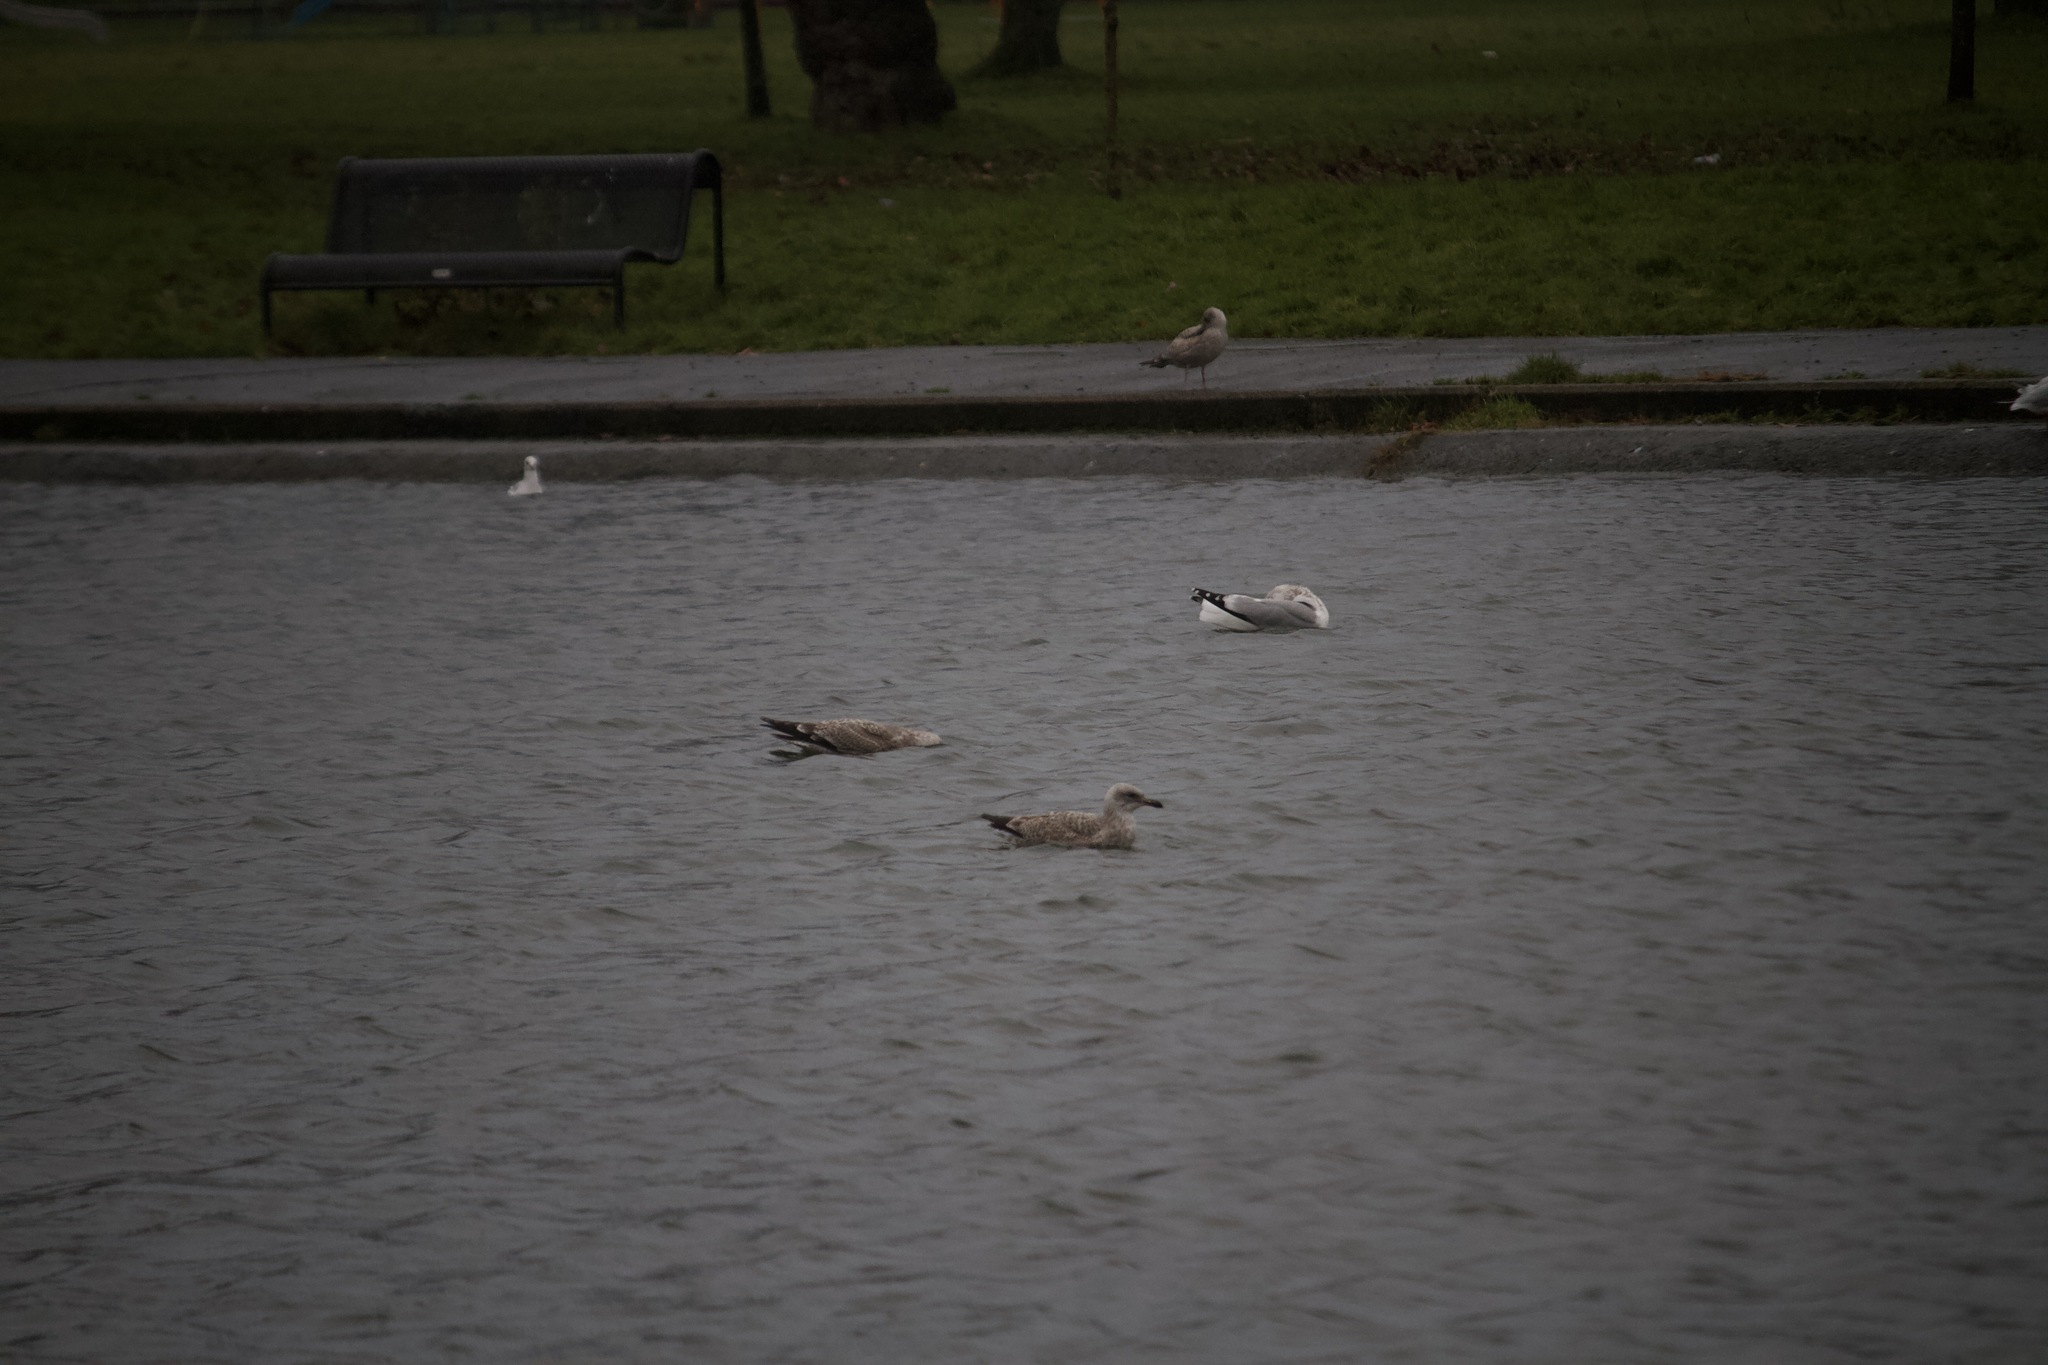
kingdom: Animalia
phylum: Chordata
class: Aves
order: Charadriiformes
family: Laridae
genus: Larus
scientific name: Larus argentatus
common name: Herring gull
